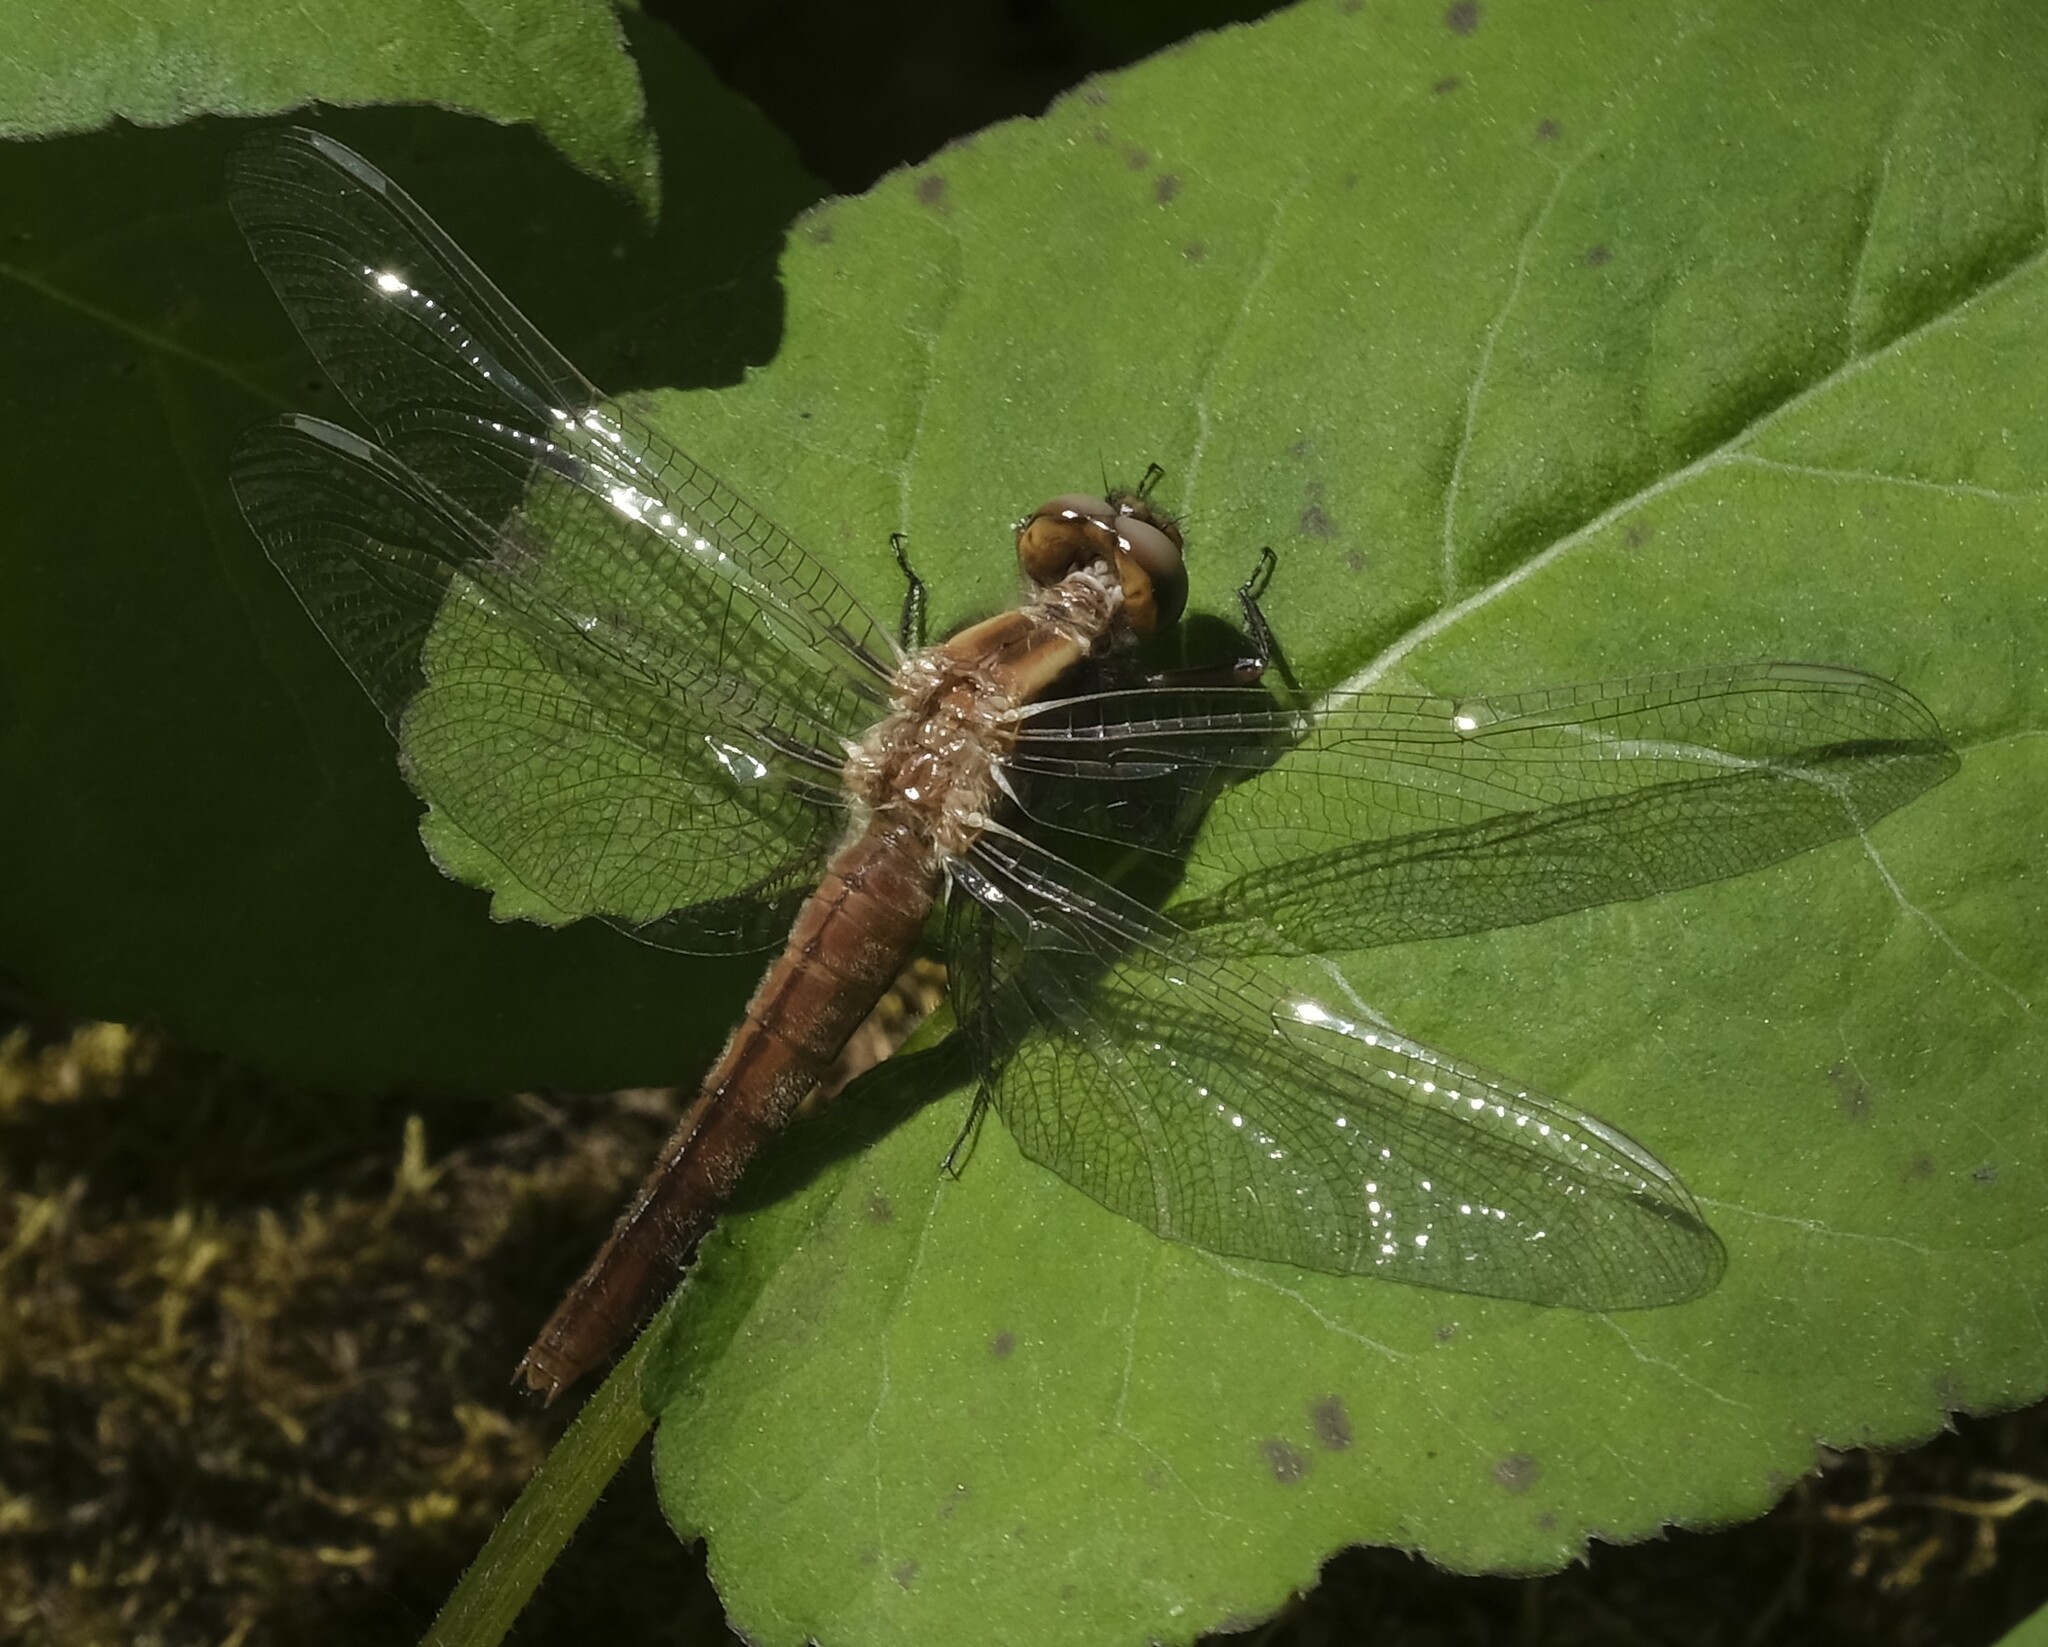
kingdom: Animalia
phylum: Arthropoda
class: Insecta
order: Odonata
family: Libellulidae
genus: Ladona
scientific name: Ladona julia
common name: Chalk-fronted corporal
